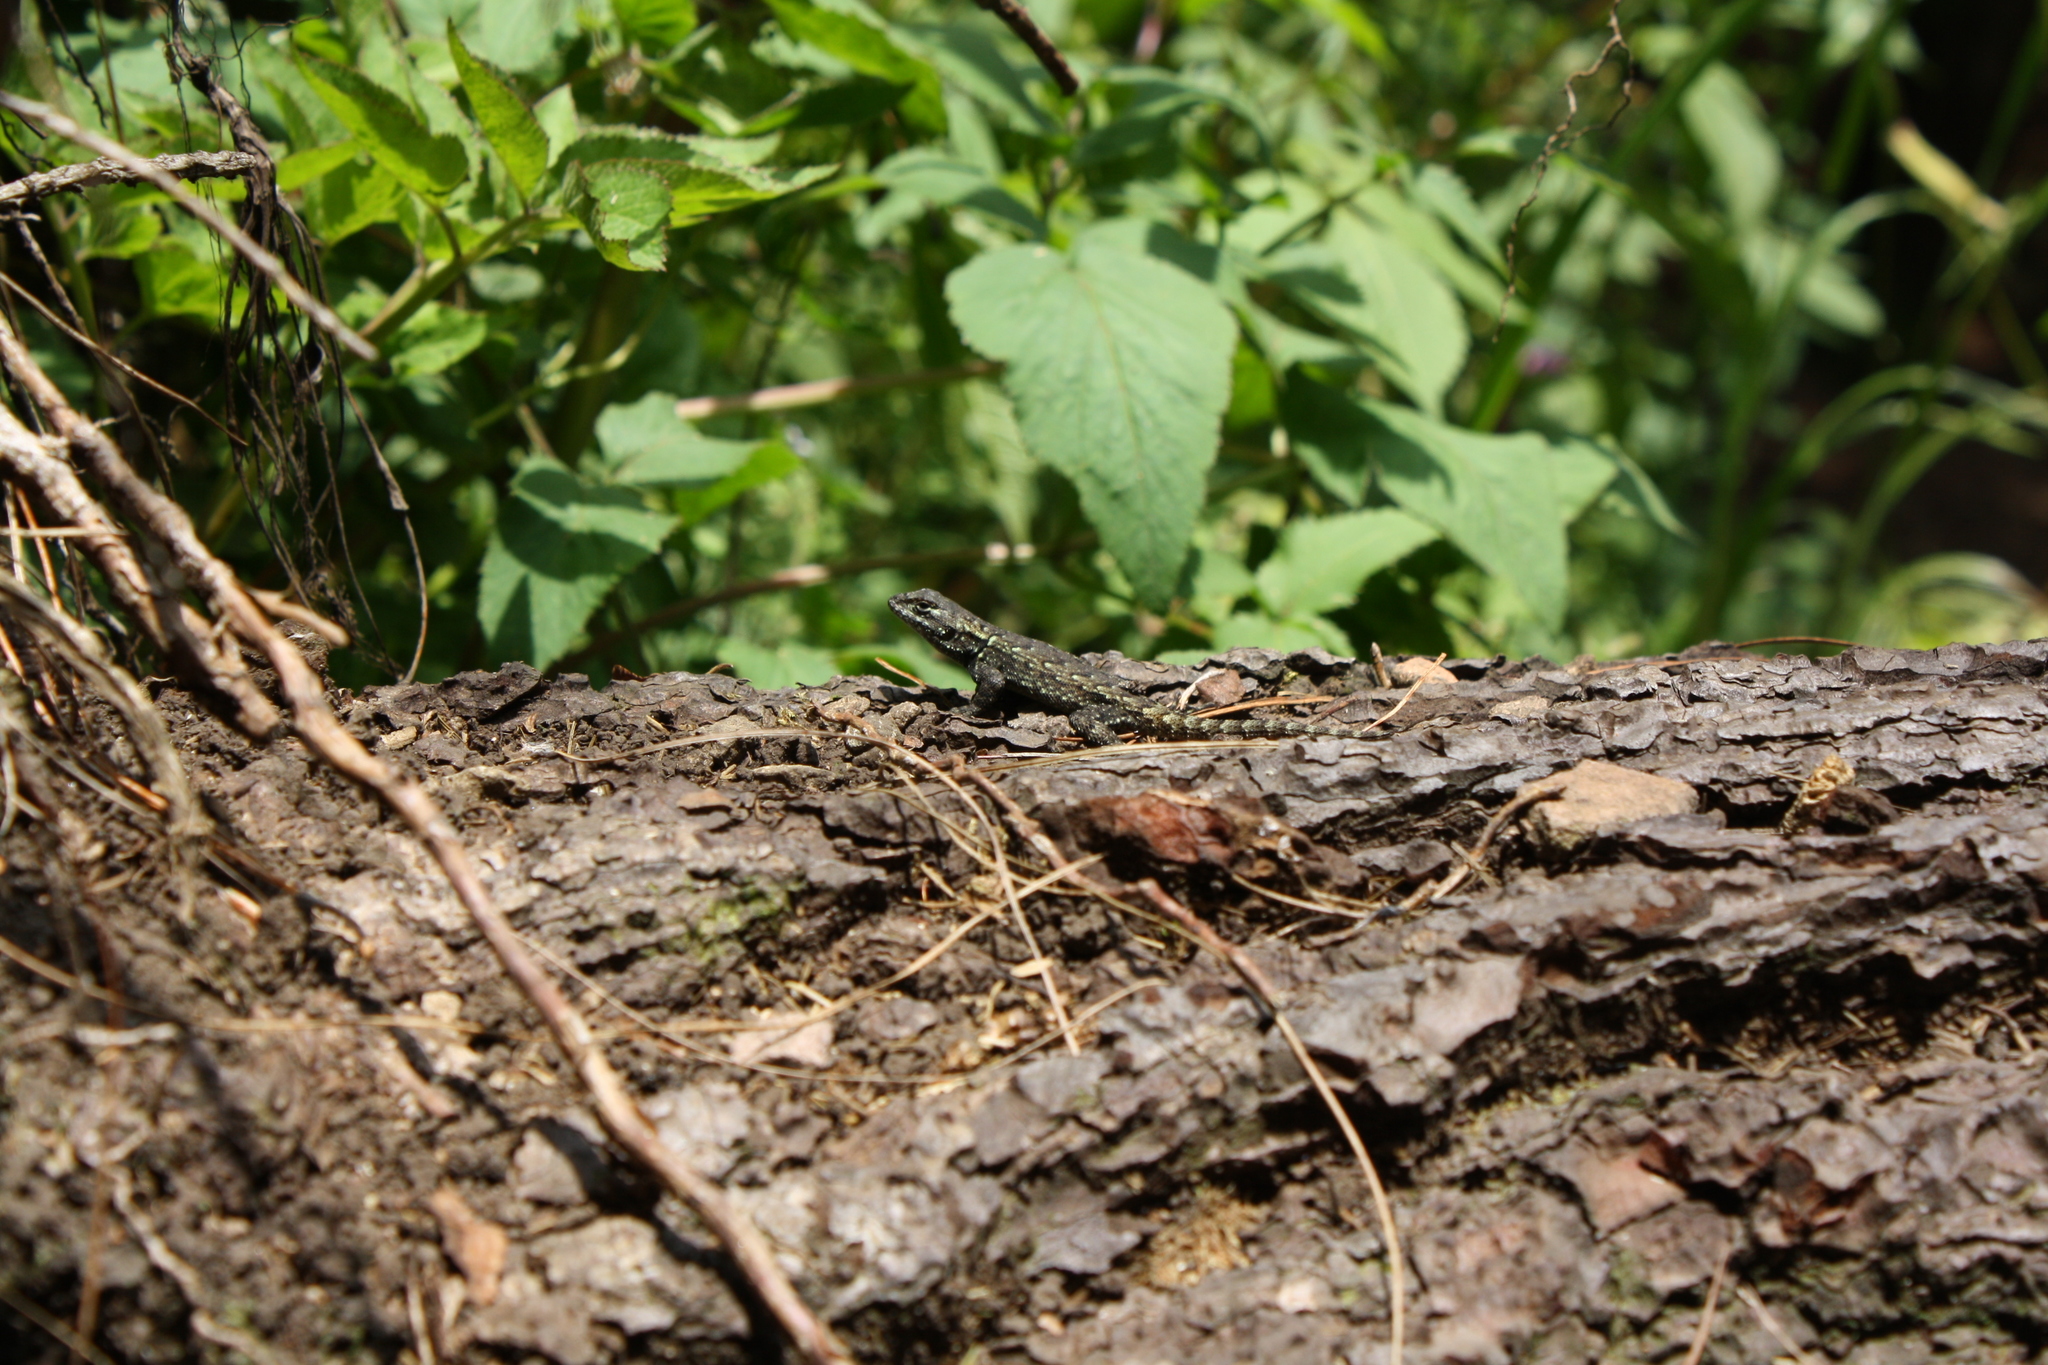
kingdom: Animalia
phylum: Chordata
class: Squamata
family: Phrynosomatidae
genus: Sceloporus
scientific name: Sceloporus grammicus
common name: Mesquite lizard
